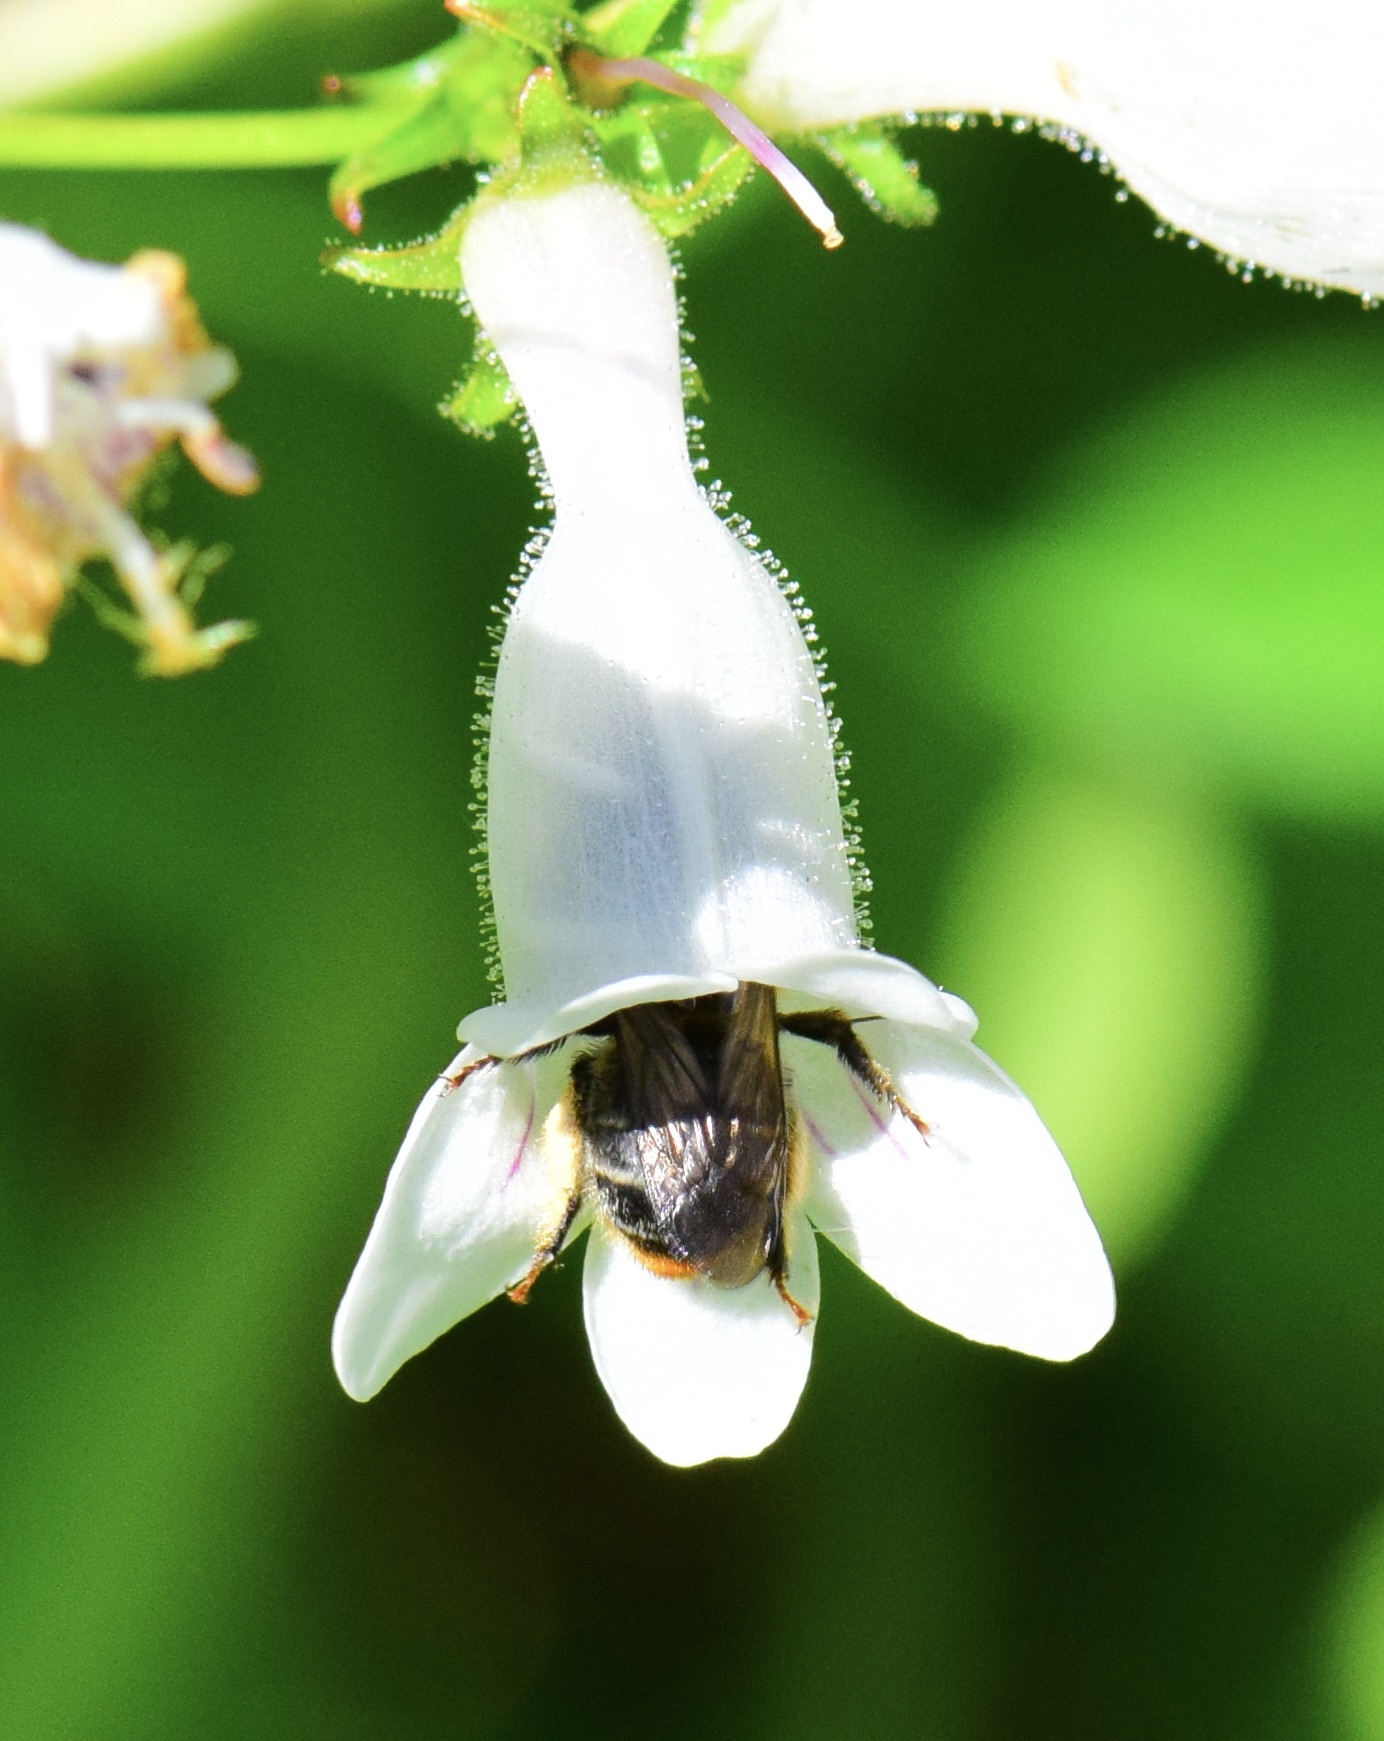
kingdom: Animalia
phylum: Arthropoda
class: Insecta
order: Hymenoptera
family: Apidae
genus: Anthophora
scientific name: Anthophora terminalis
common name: Orange-tipped wood-digger bee
